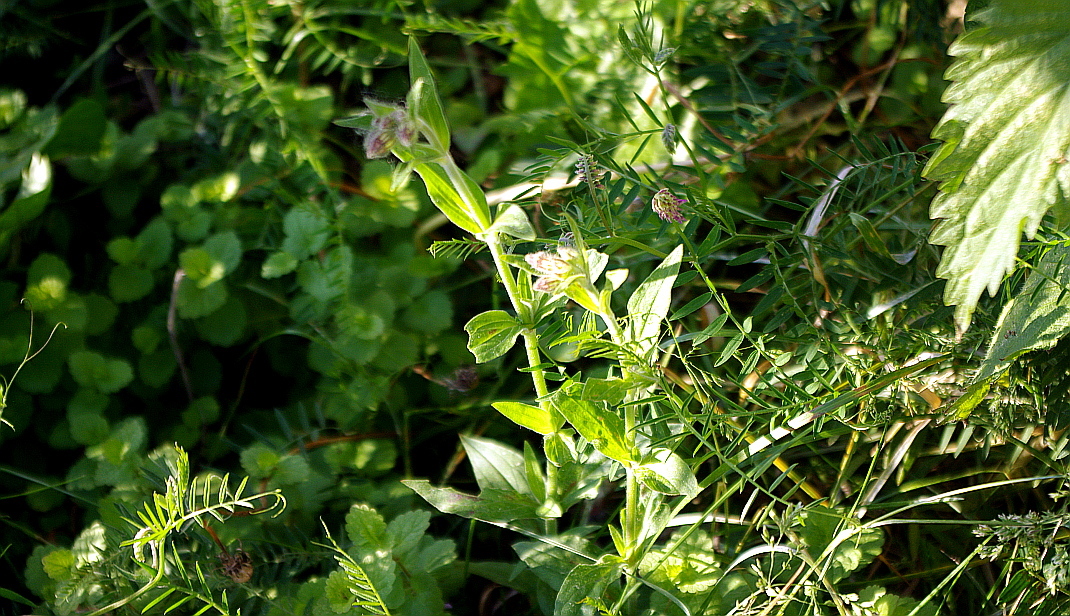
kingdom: Plantae
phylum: Tracheophyta
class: Magnoliopsida
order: Caryophyllales
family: Caryophyllaceae
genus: Silene
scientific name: Silene latifolia
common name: White campion
